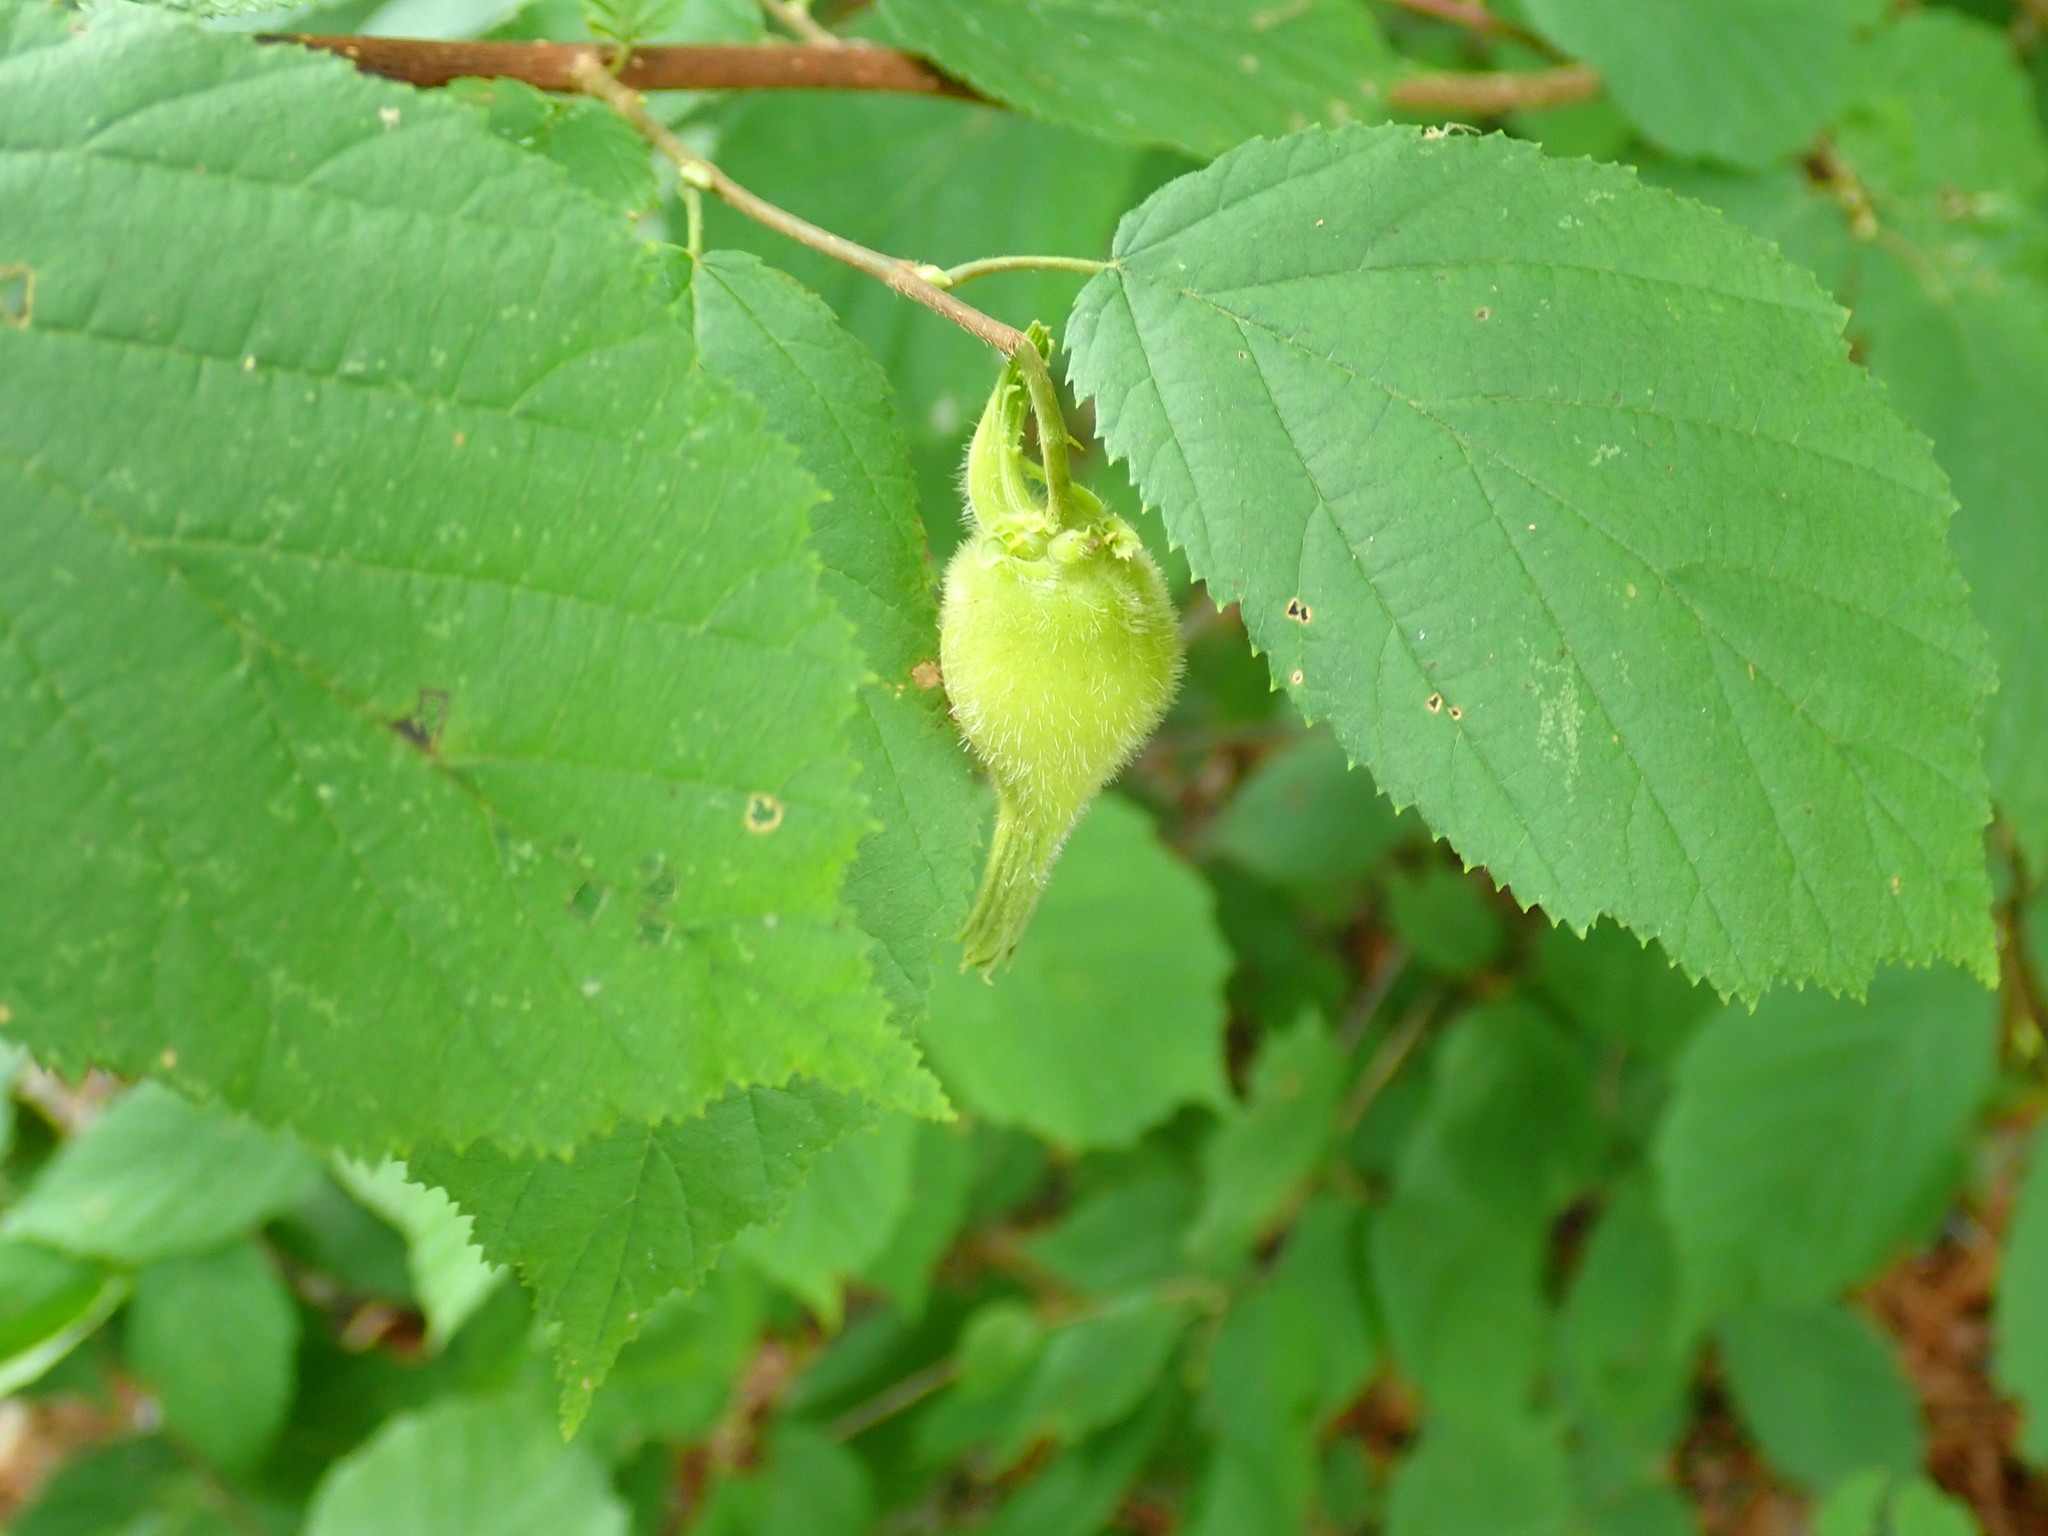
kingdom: Plantae
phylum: Tracheophyta
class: Magnoliopsida
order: Fagales
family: Betulaceae
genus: Corylus
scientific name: Corylus cornuta
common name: Beaked hazel
